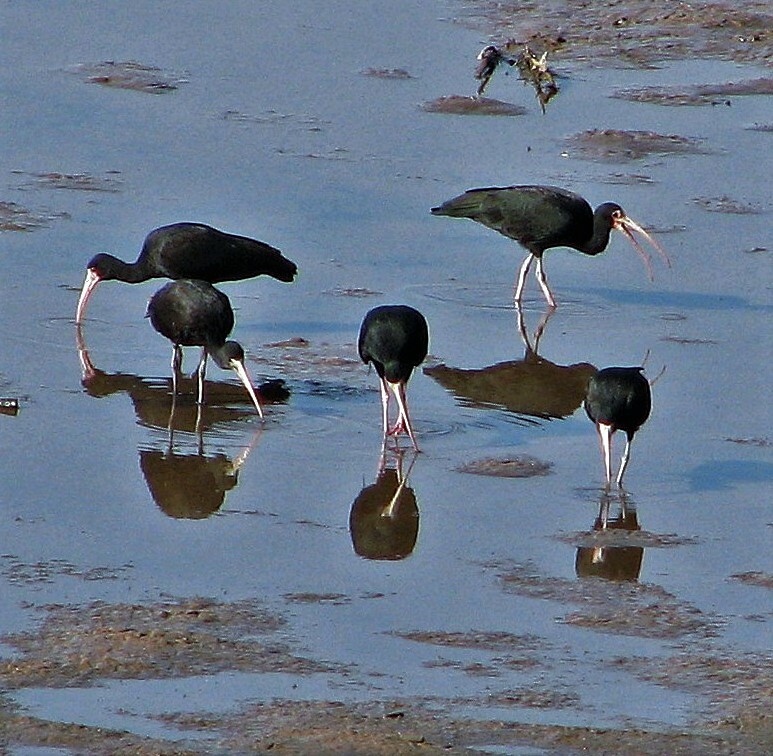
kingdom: Animalia
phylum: Chordata
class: Aves
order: Pelecaniformes
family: Threskiornithidae
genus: Phimosus
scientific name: Phimosus infuscatus
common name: Bare-faced ibis
